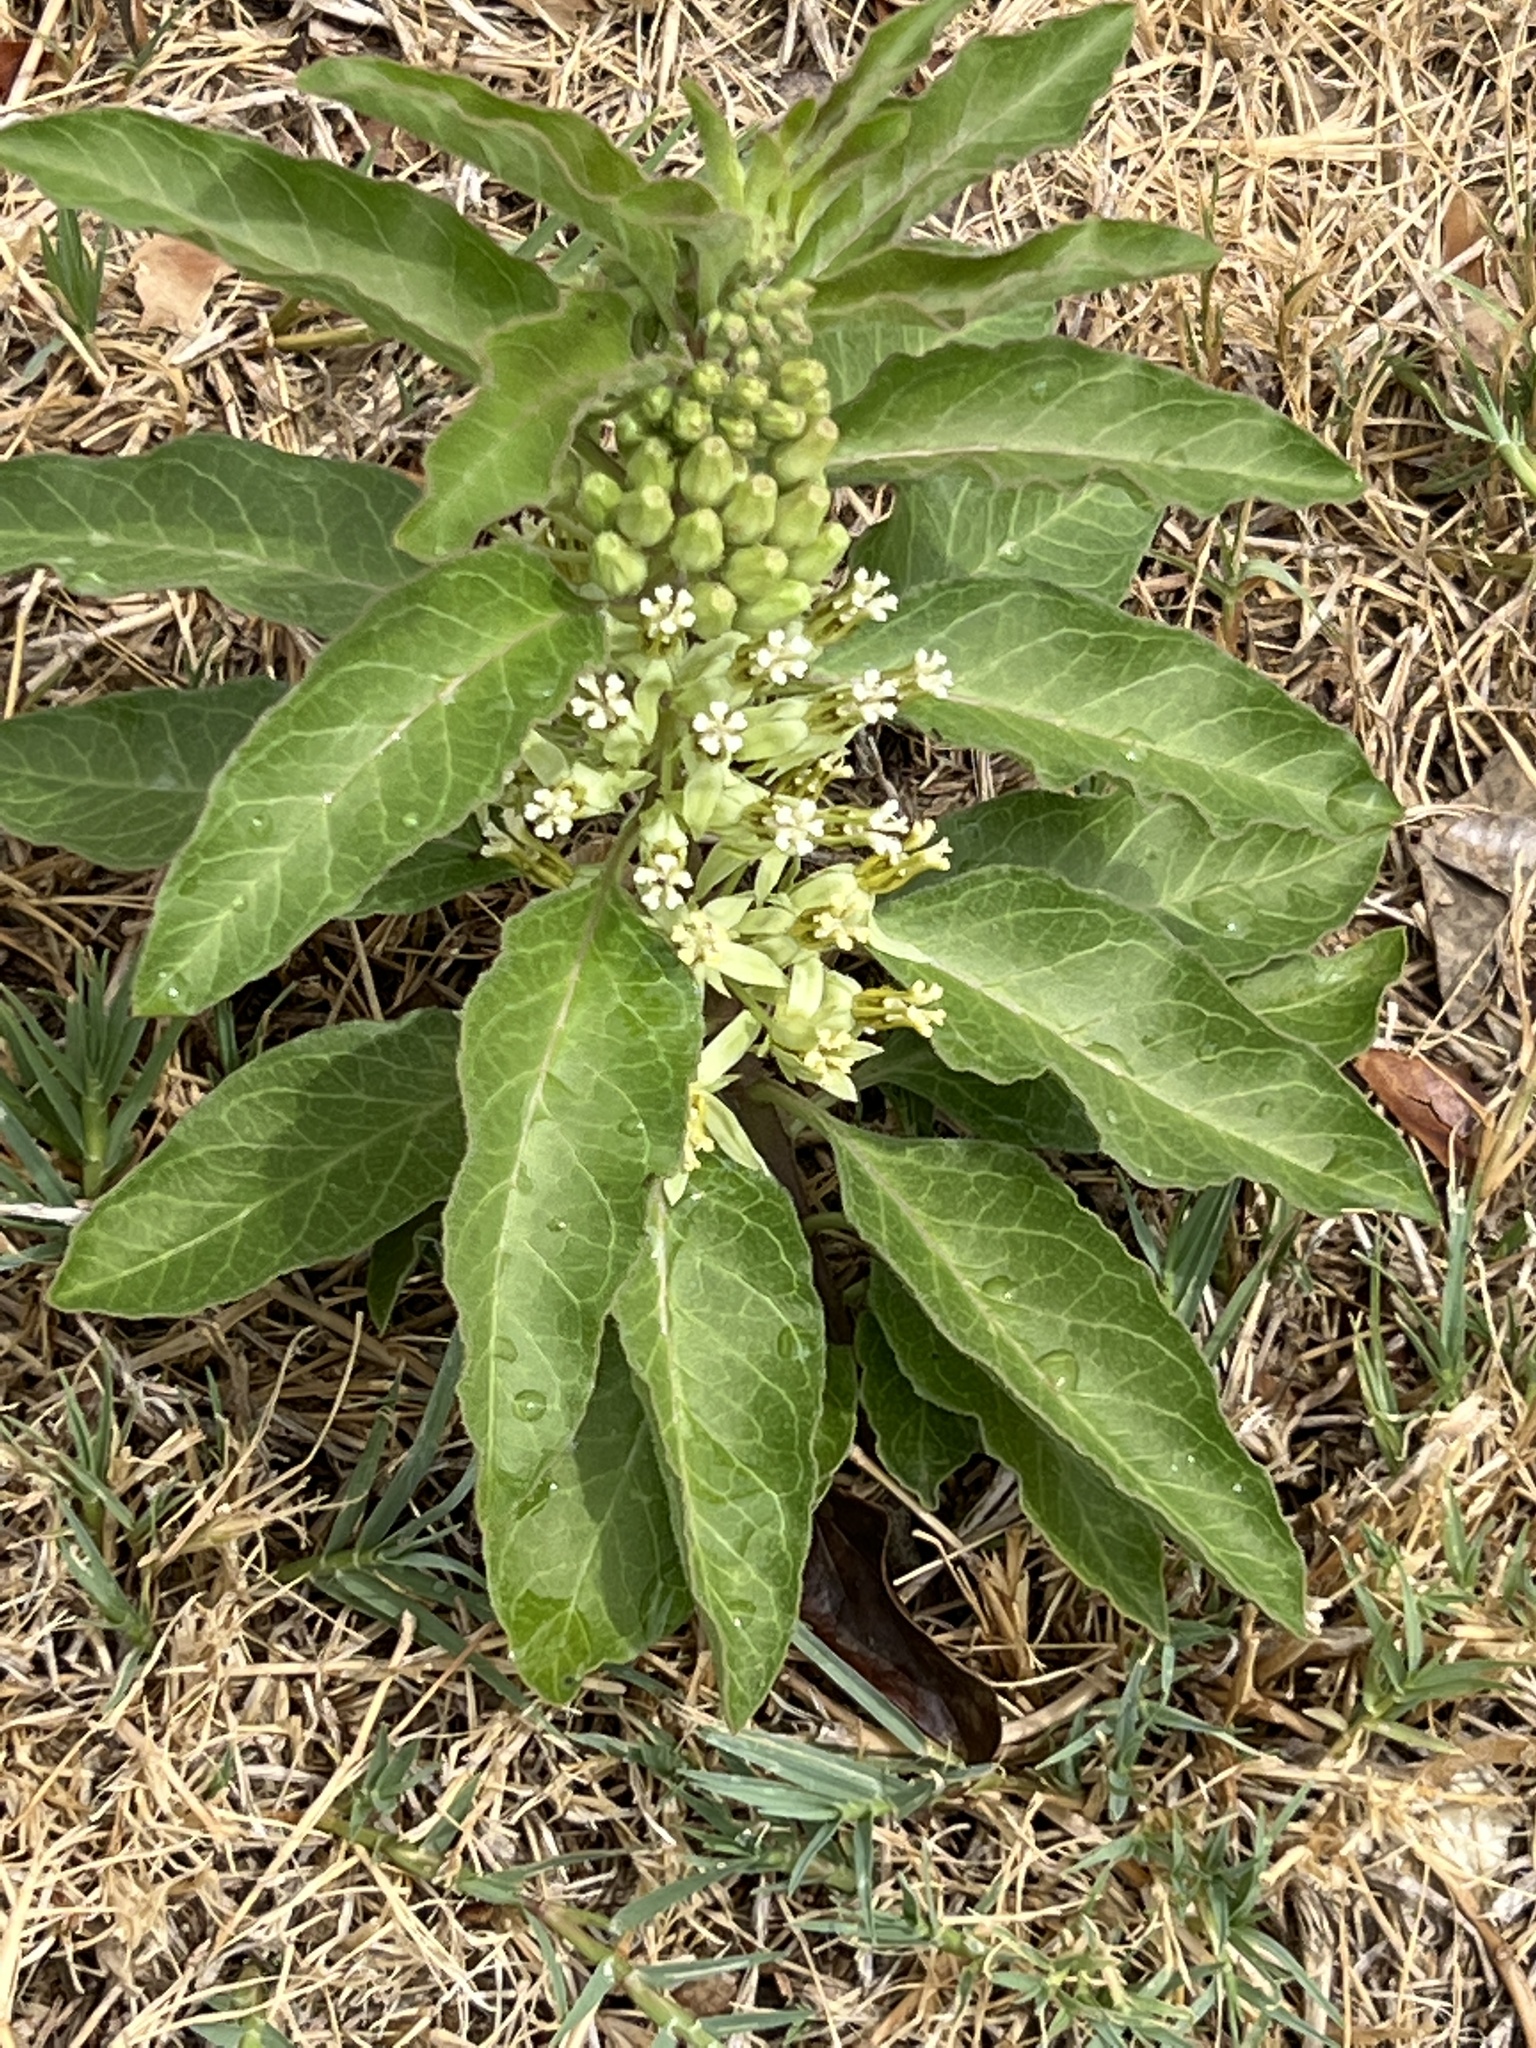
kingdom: Plantae
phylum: Tracheophyta
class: Magnoliopsida
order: Gentianales
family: Apocynaceae
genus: Asclepias
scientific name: Asclepias oenotheroides
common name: Zizotes milkweed
